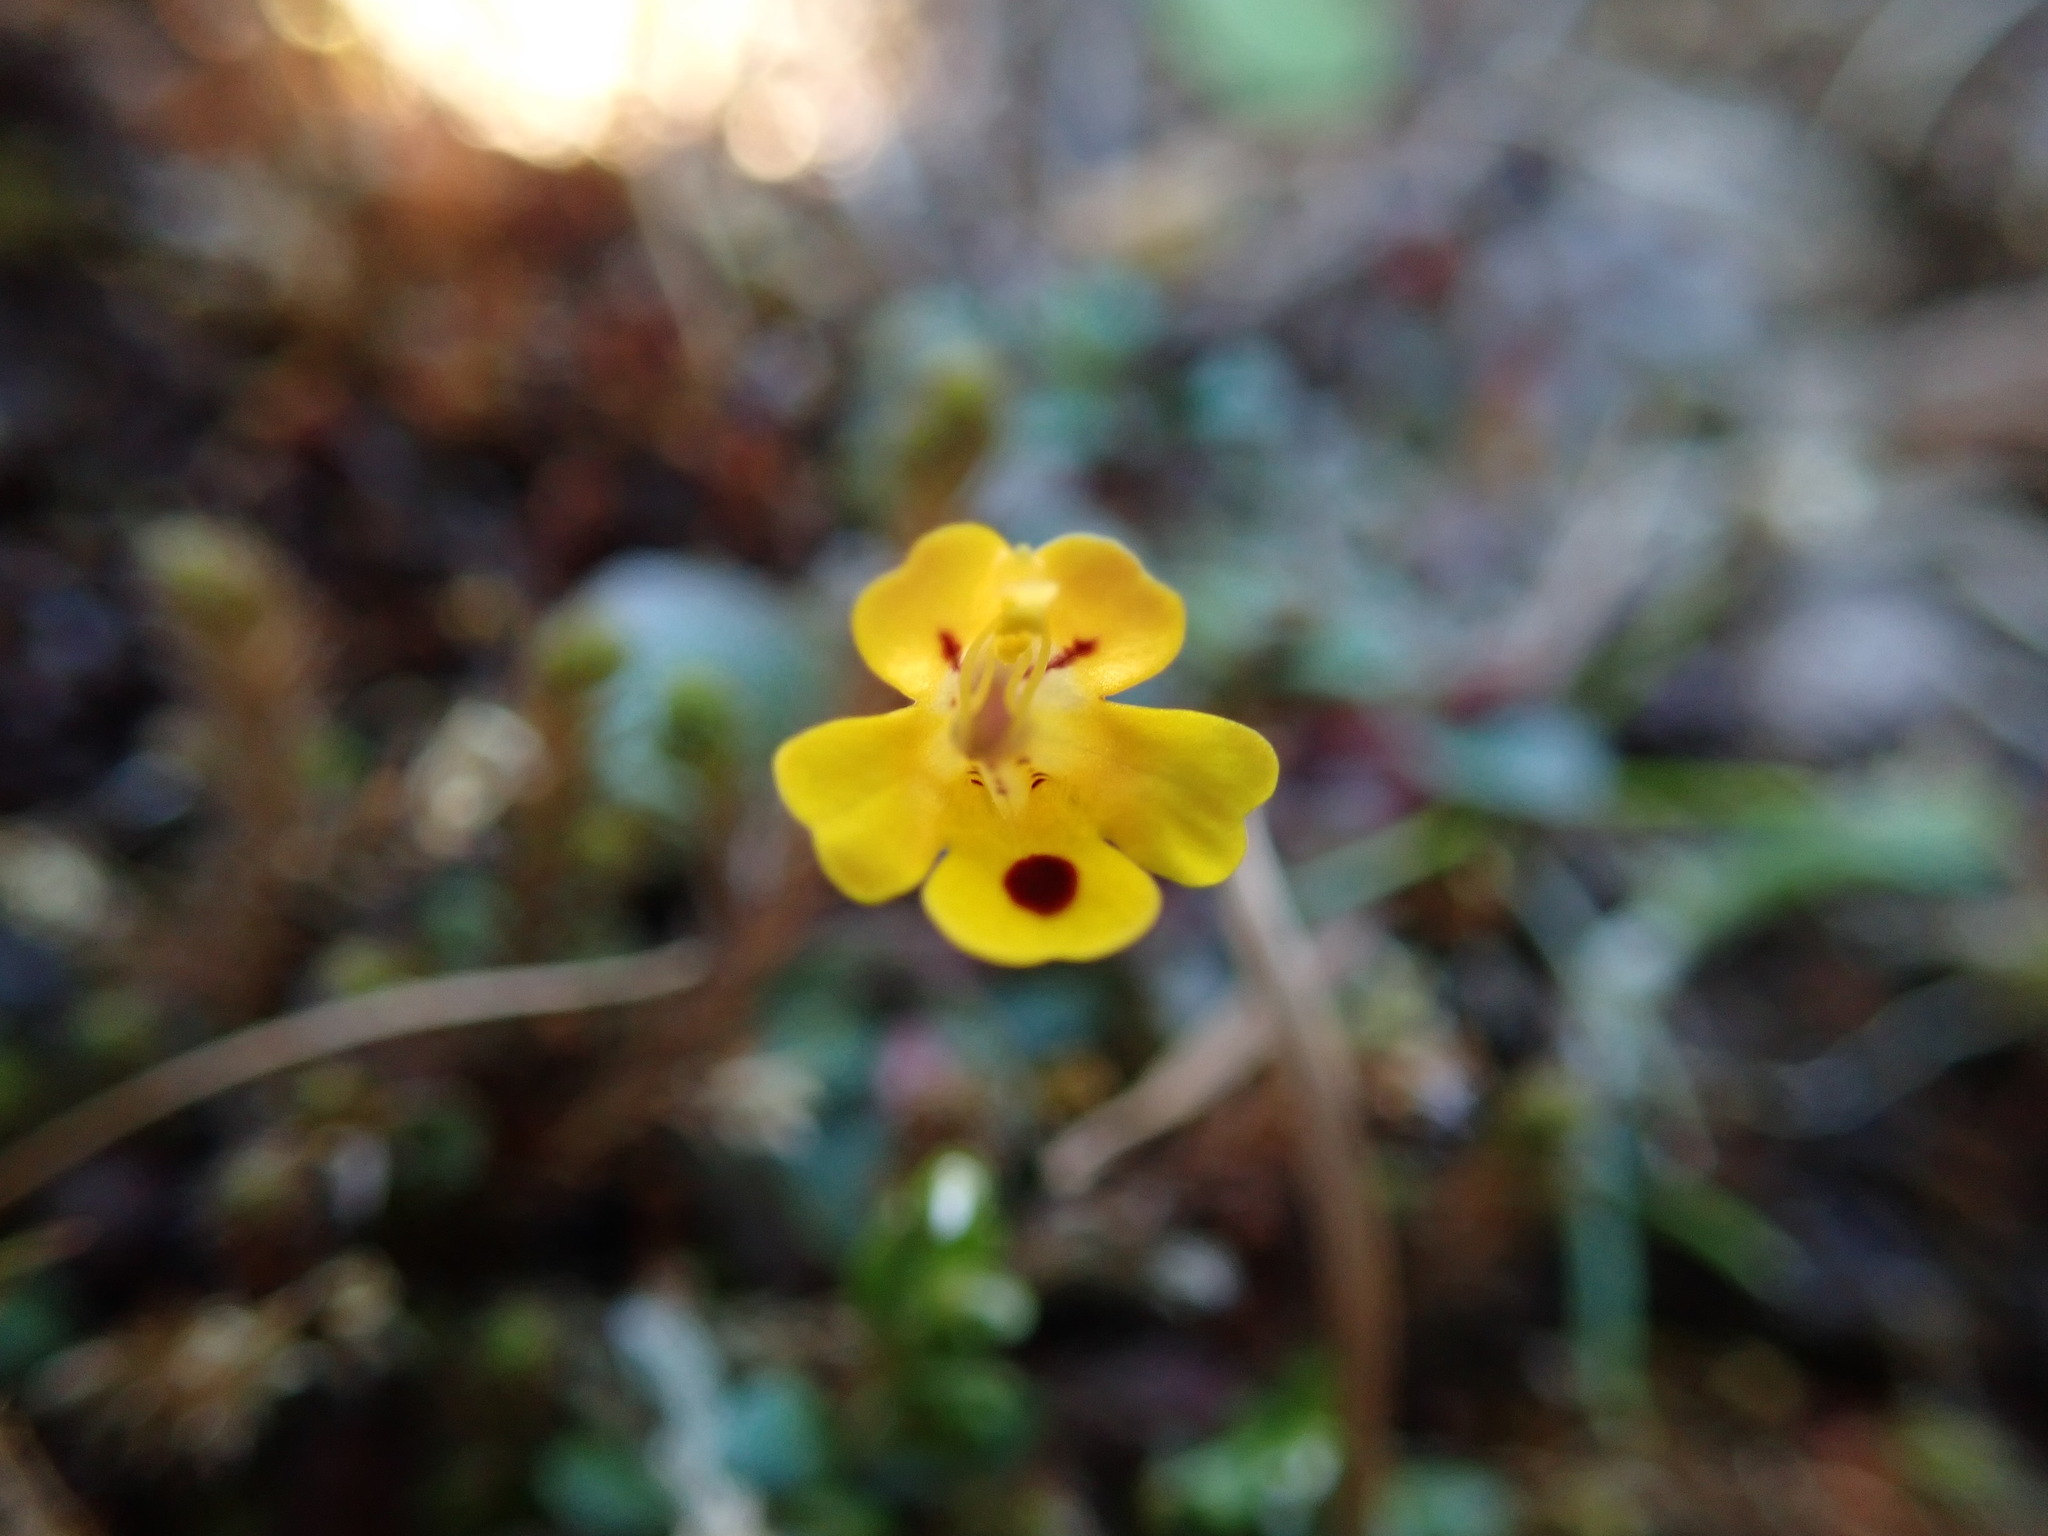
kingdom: Plantae
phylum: Tracheophyta
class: Magnoliopsida
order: Lamiales
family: Phrymaceae
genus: Erythranthe
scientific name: Erythranthe alsinoides
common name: Chickweed monkeyflower
